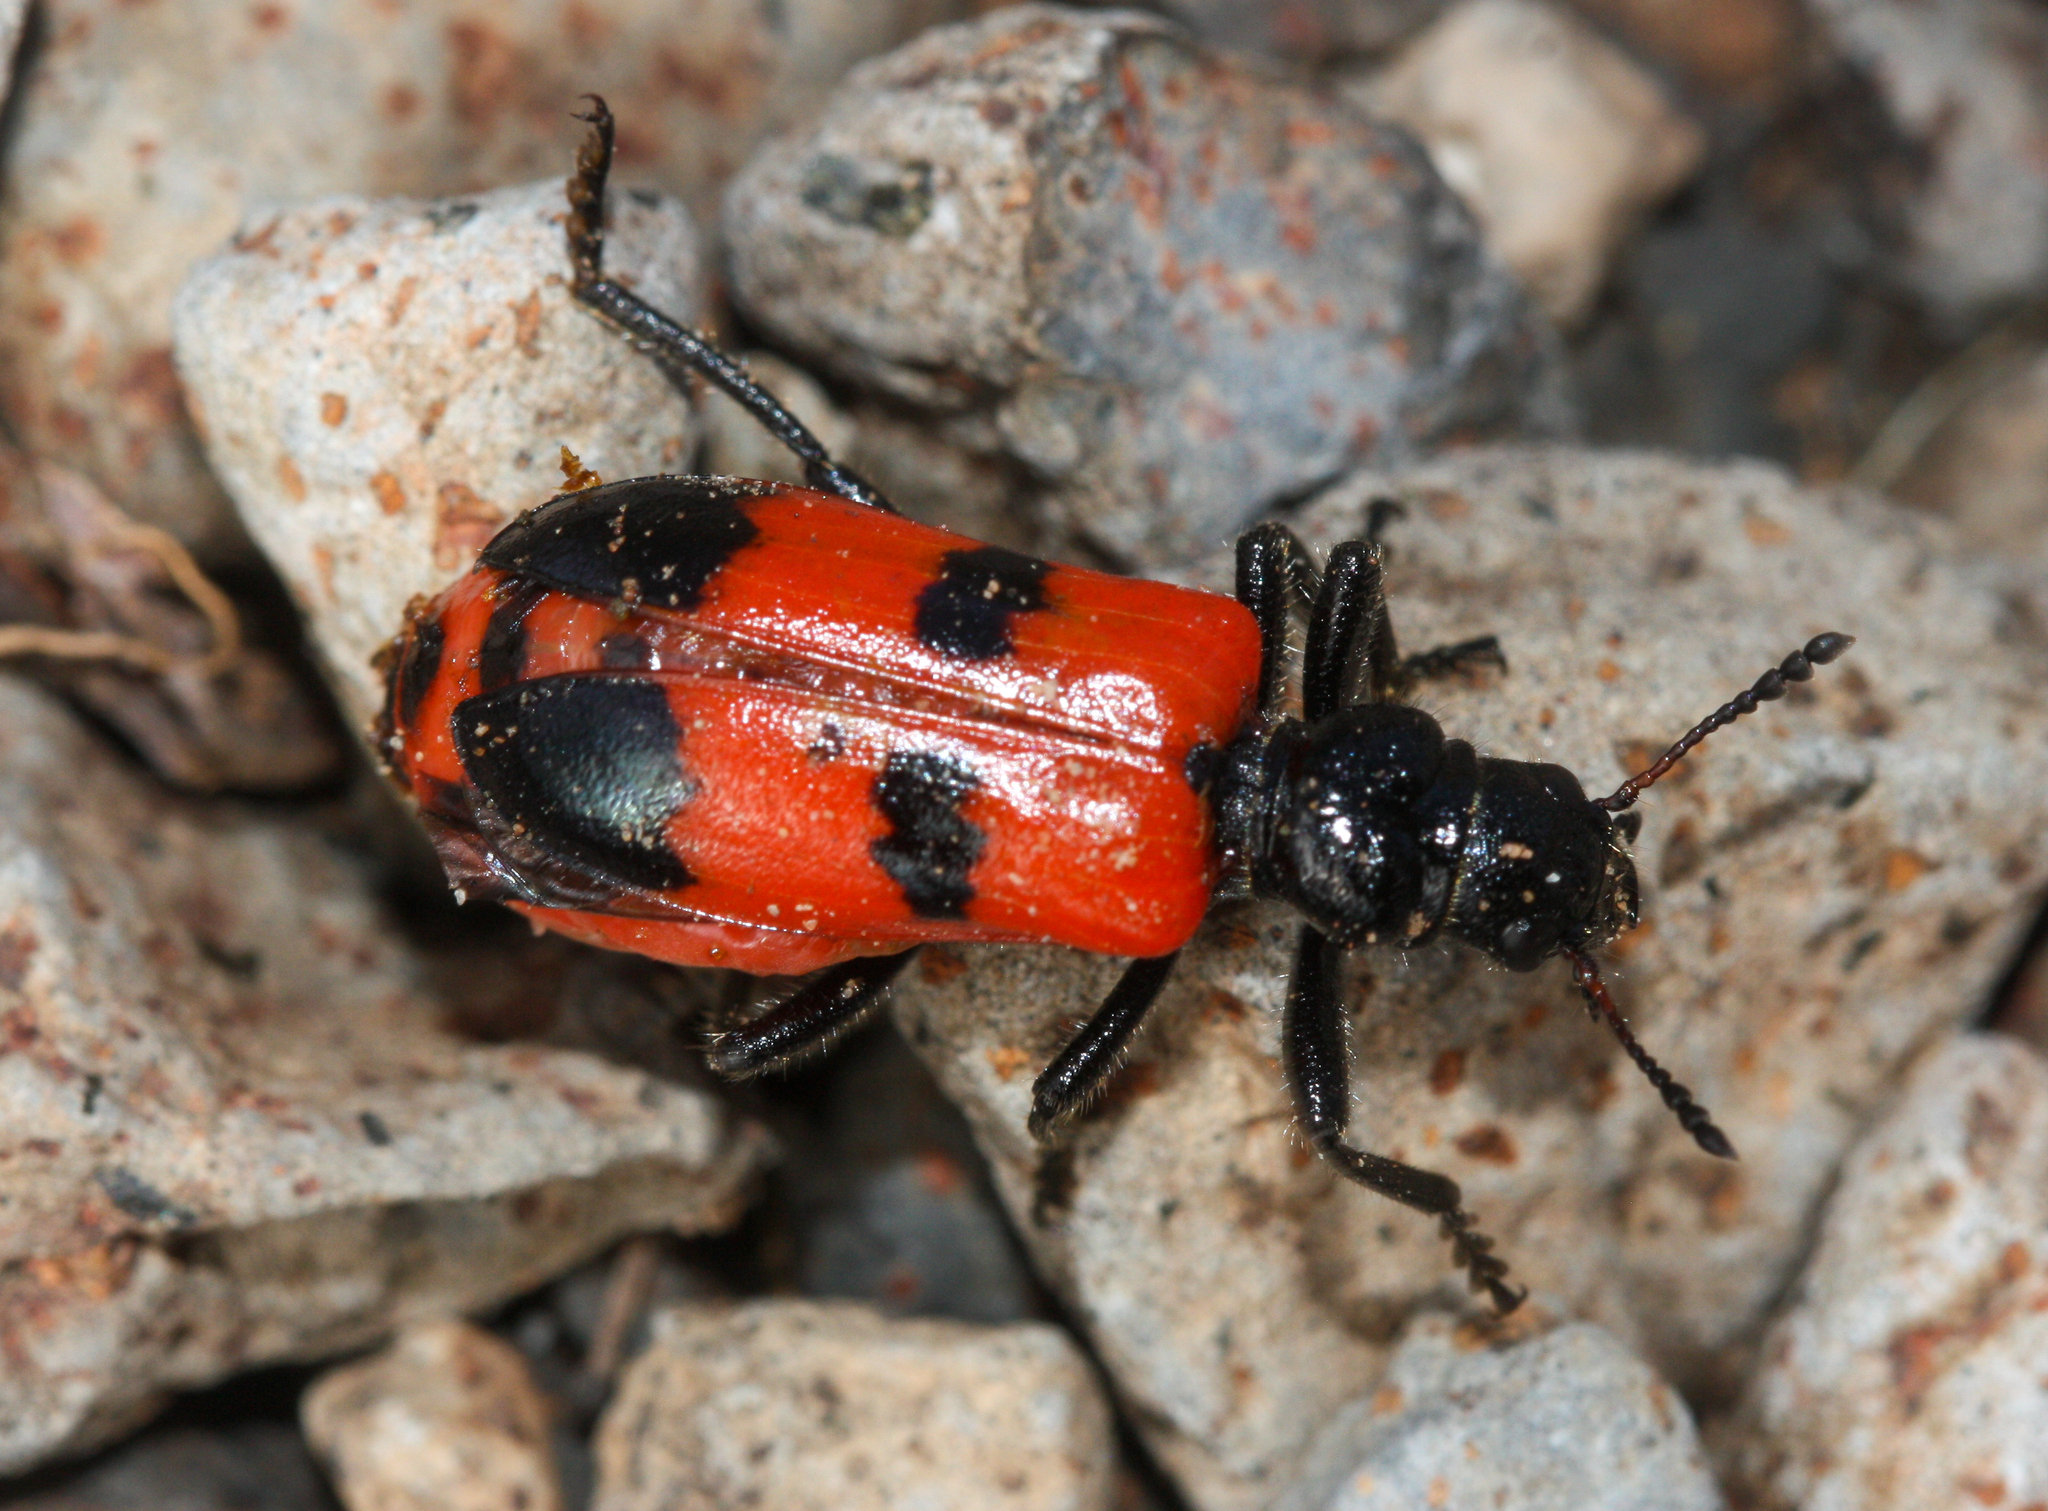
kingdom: Animalia
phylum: Arthropoda
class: Insecta
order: Coleoptera
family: Cleridae
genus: Aulicus
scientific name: Aulicus edwardsi
